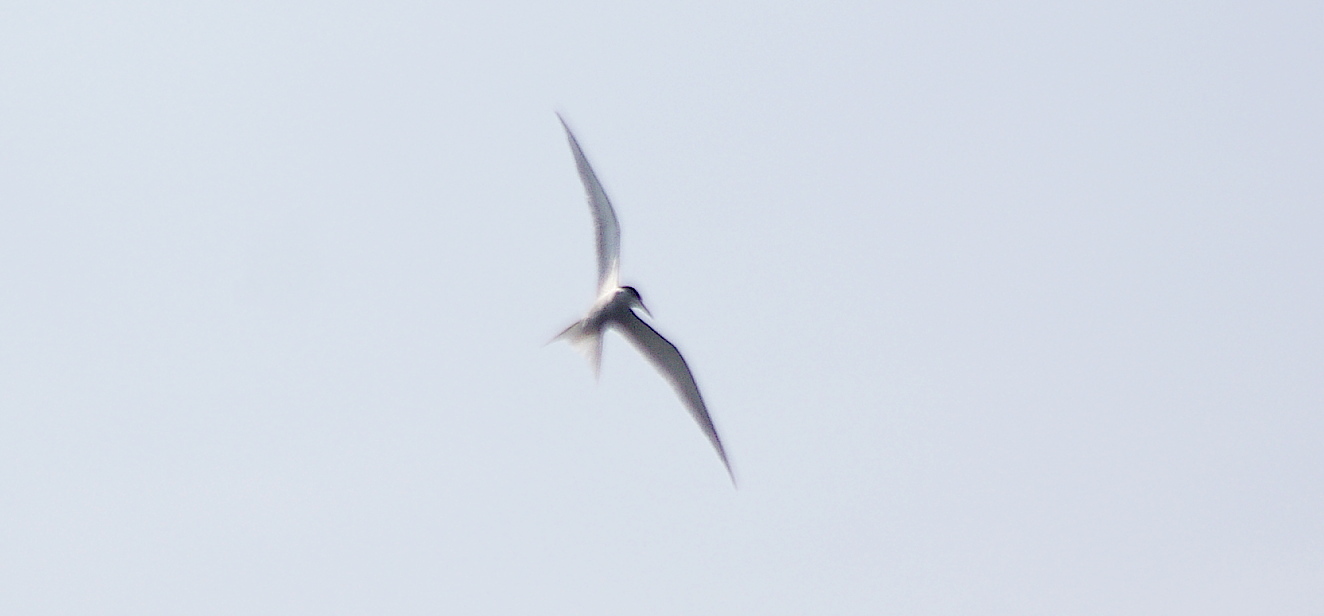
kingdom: Animalia
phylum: Chordata
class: Aves
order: Charadriiformes
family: Laridae
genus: Sterna
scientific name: Sterna hirundo
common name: Common tern
